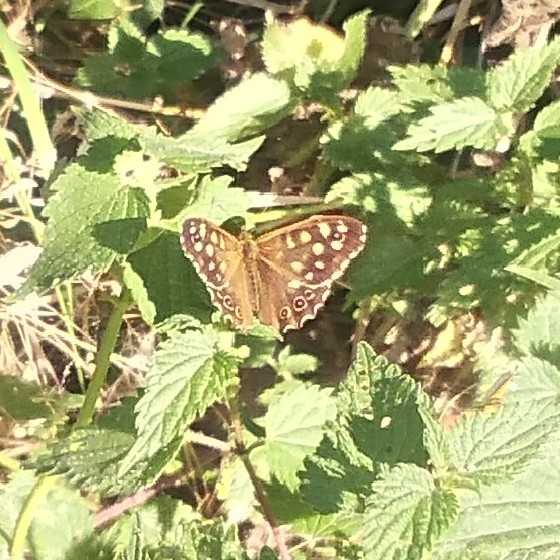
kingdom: Animalia
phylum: Arthropoda
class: Insecta
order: Lepidoptera
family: Nymphalidae
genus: Pararge
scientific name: Pararge aegeria
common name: Speckled wood
